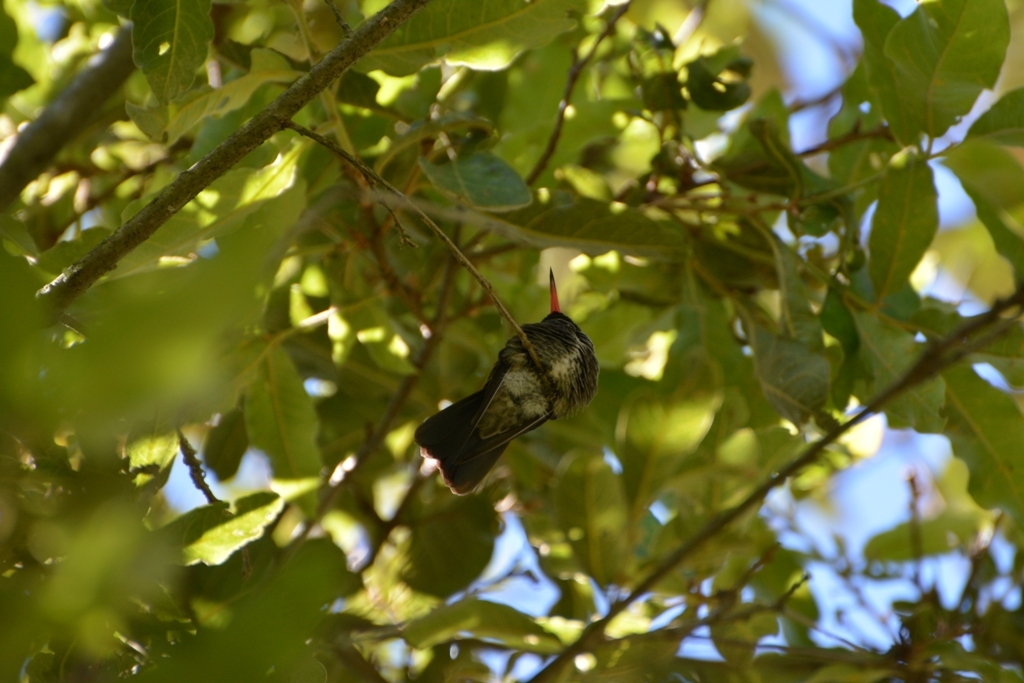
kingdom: Animalia
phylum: Chordata
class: Aves
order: Apodiformes
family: Trochilidae
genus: Basilinna
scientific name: Basilinna leucotis
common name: White-eared hummingbird
